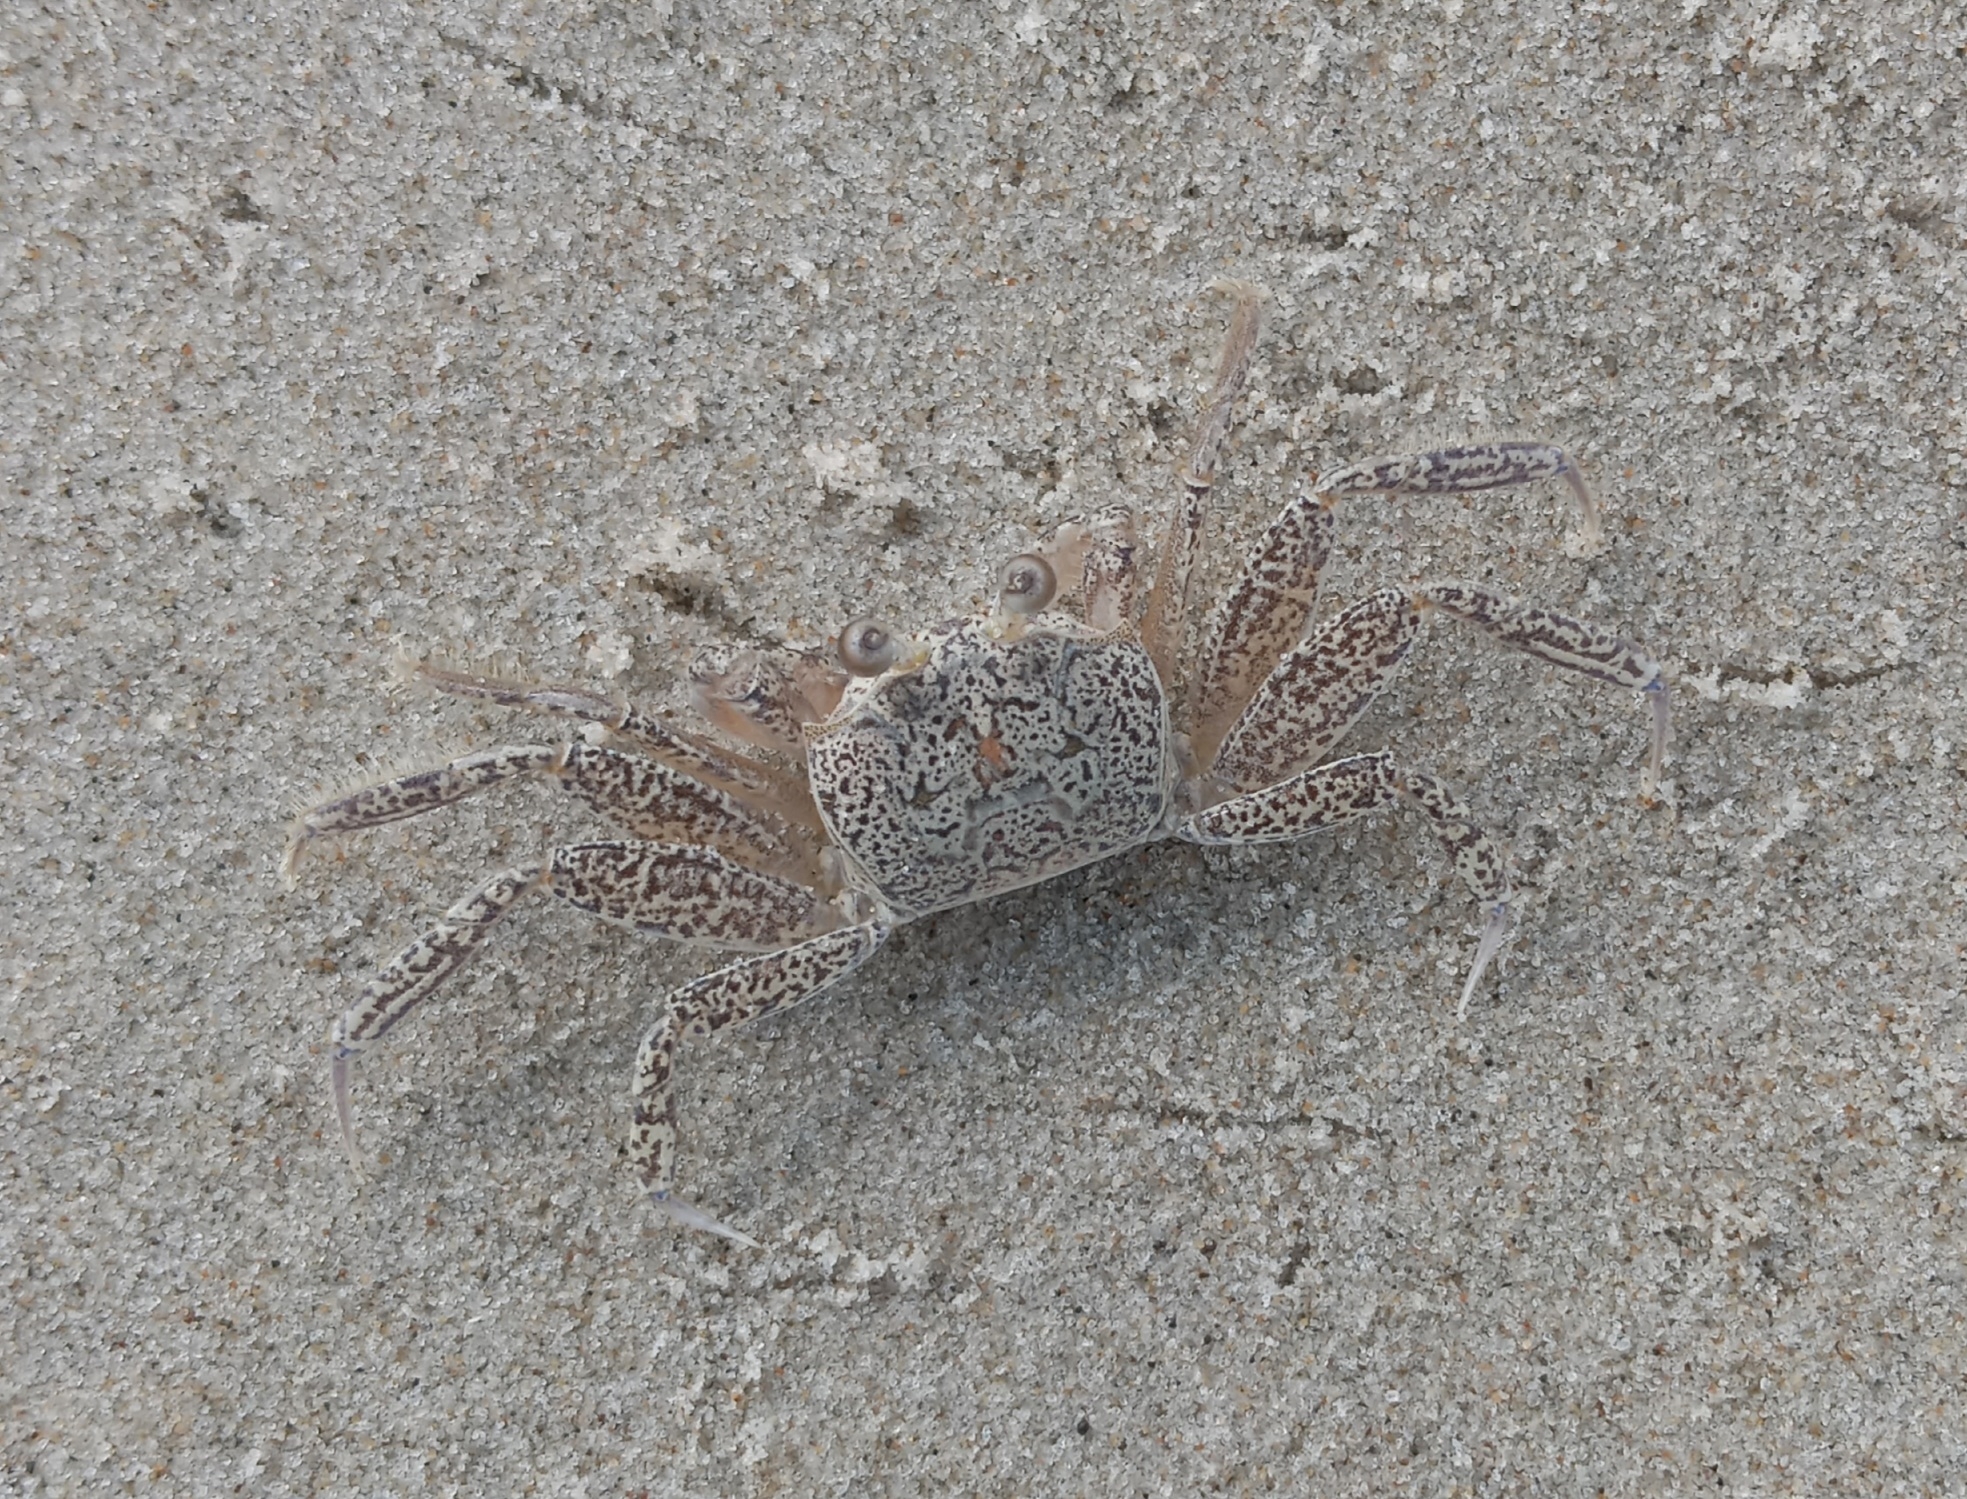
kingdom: Animalia
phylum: Arthropoda
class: Malacostraca
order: Decapoda
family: Ocypodidae
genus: Ocypode
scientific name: Ocypode quadrata
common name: Ghost crab
